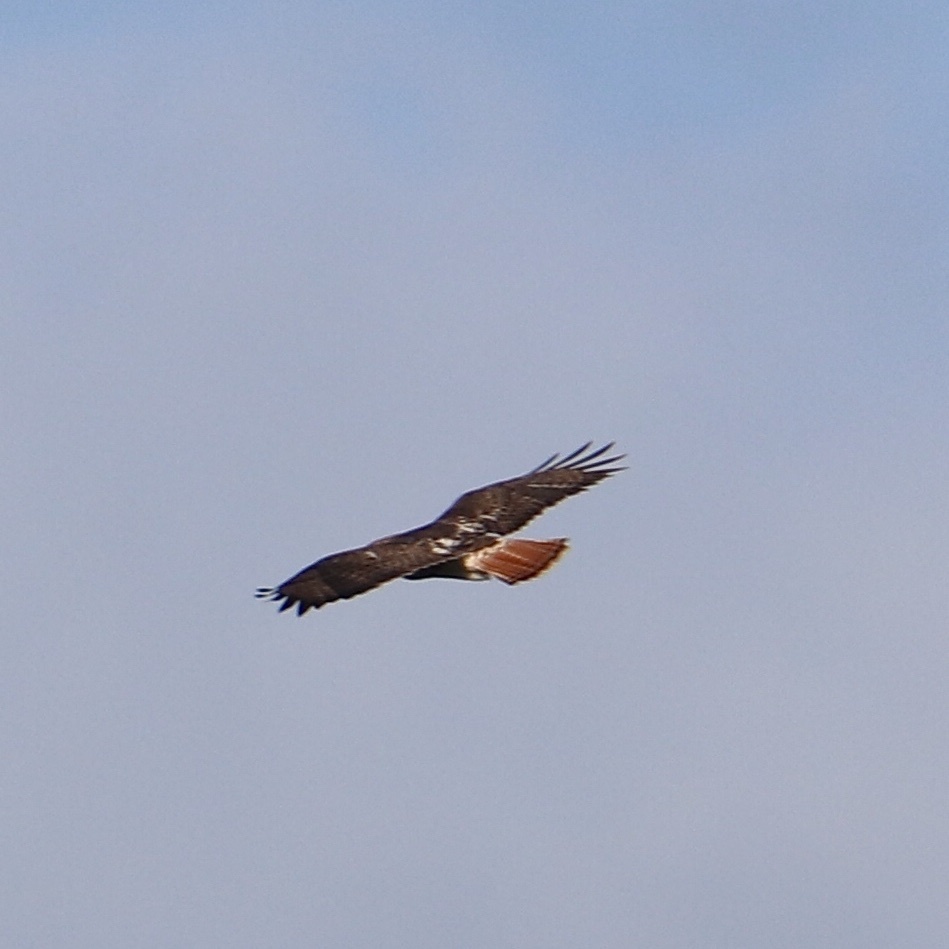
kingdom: Animalia
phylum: Chordata
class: Aves
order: Accipitriformes
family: Accipitridae
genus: Buteo
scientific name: Buteo jamaicensis
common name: Red-tailed hawk
